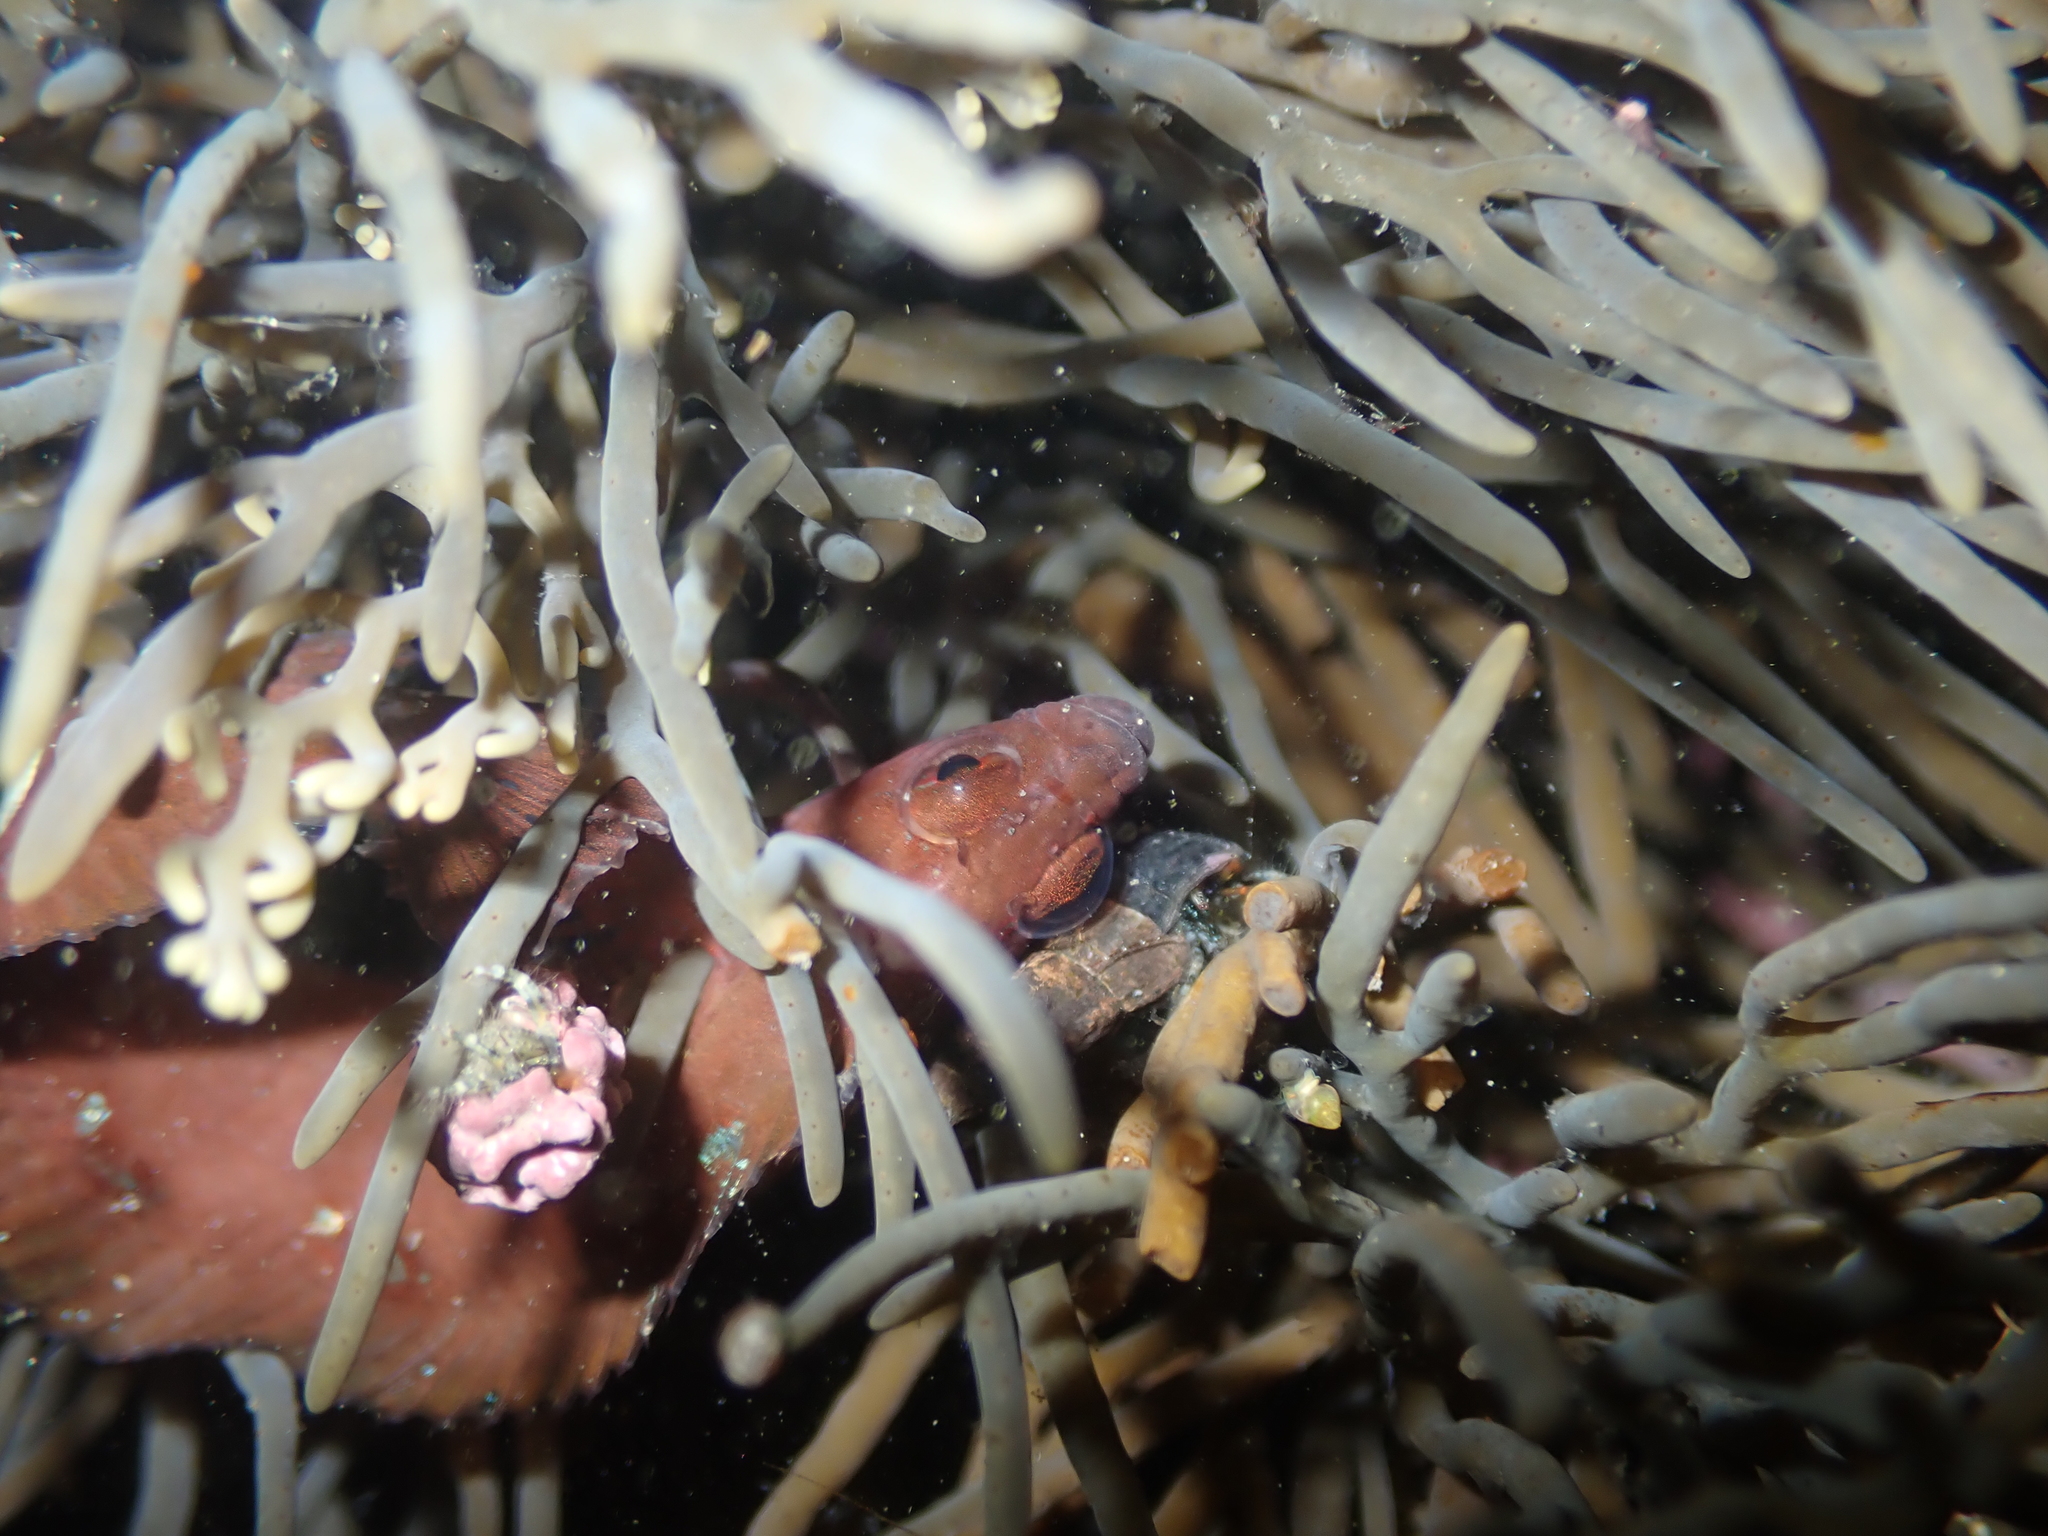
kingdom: Animalia
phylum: Chordata
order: Perciformes
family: Clinidae
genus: Ericentrus
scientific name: Ericentrus rubrus
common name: Orange clinid
